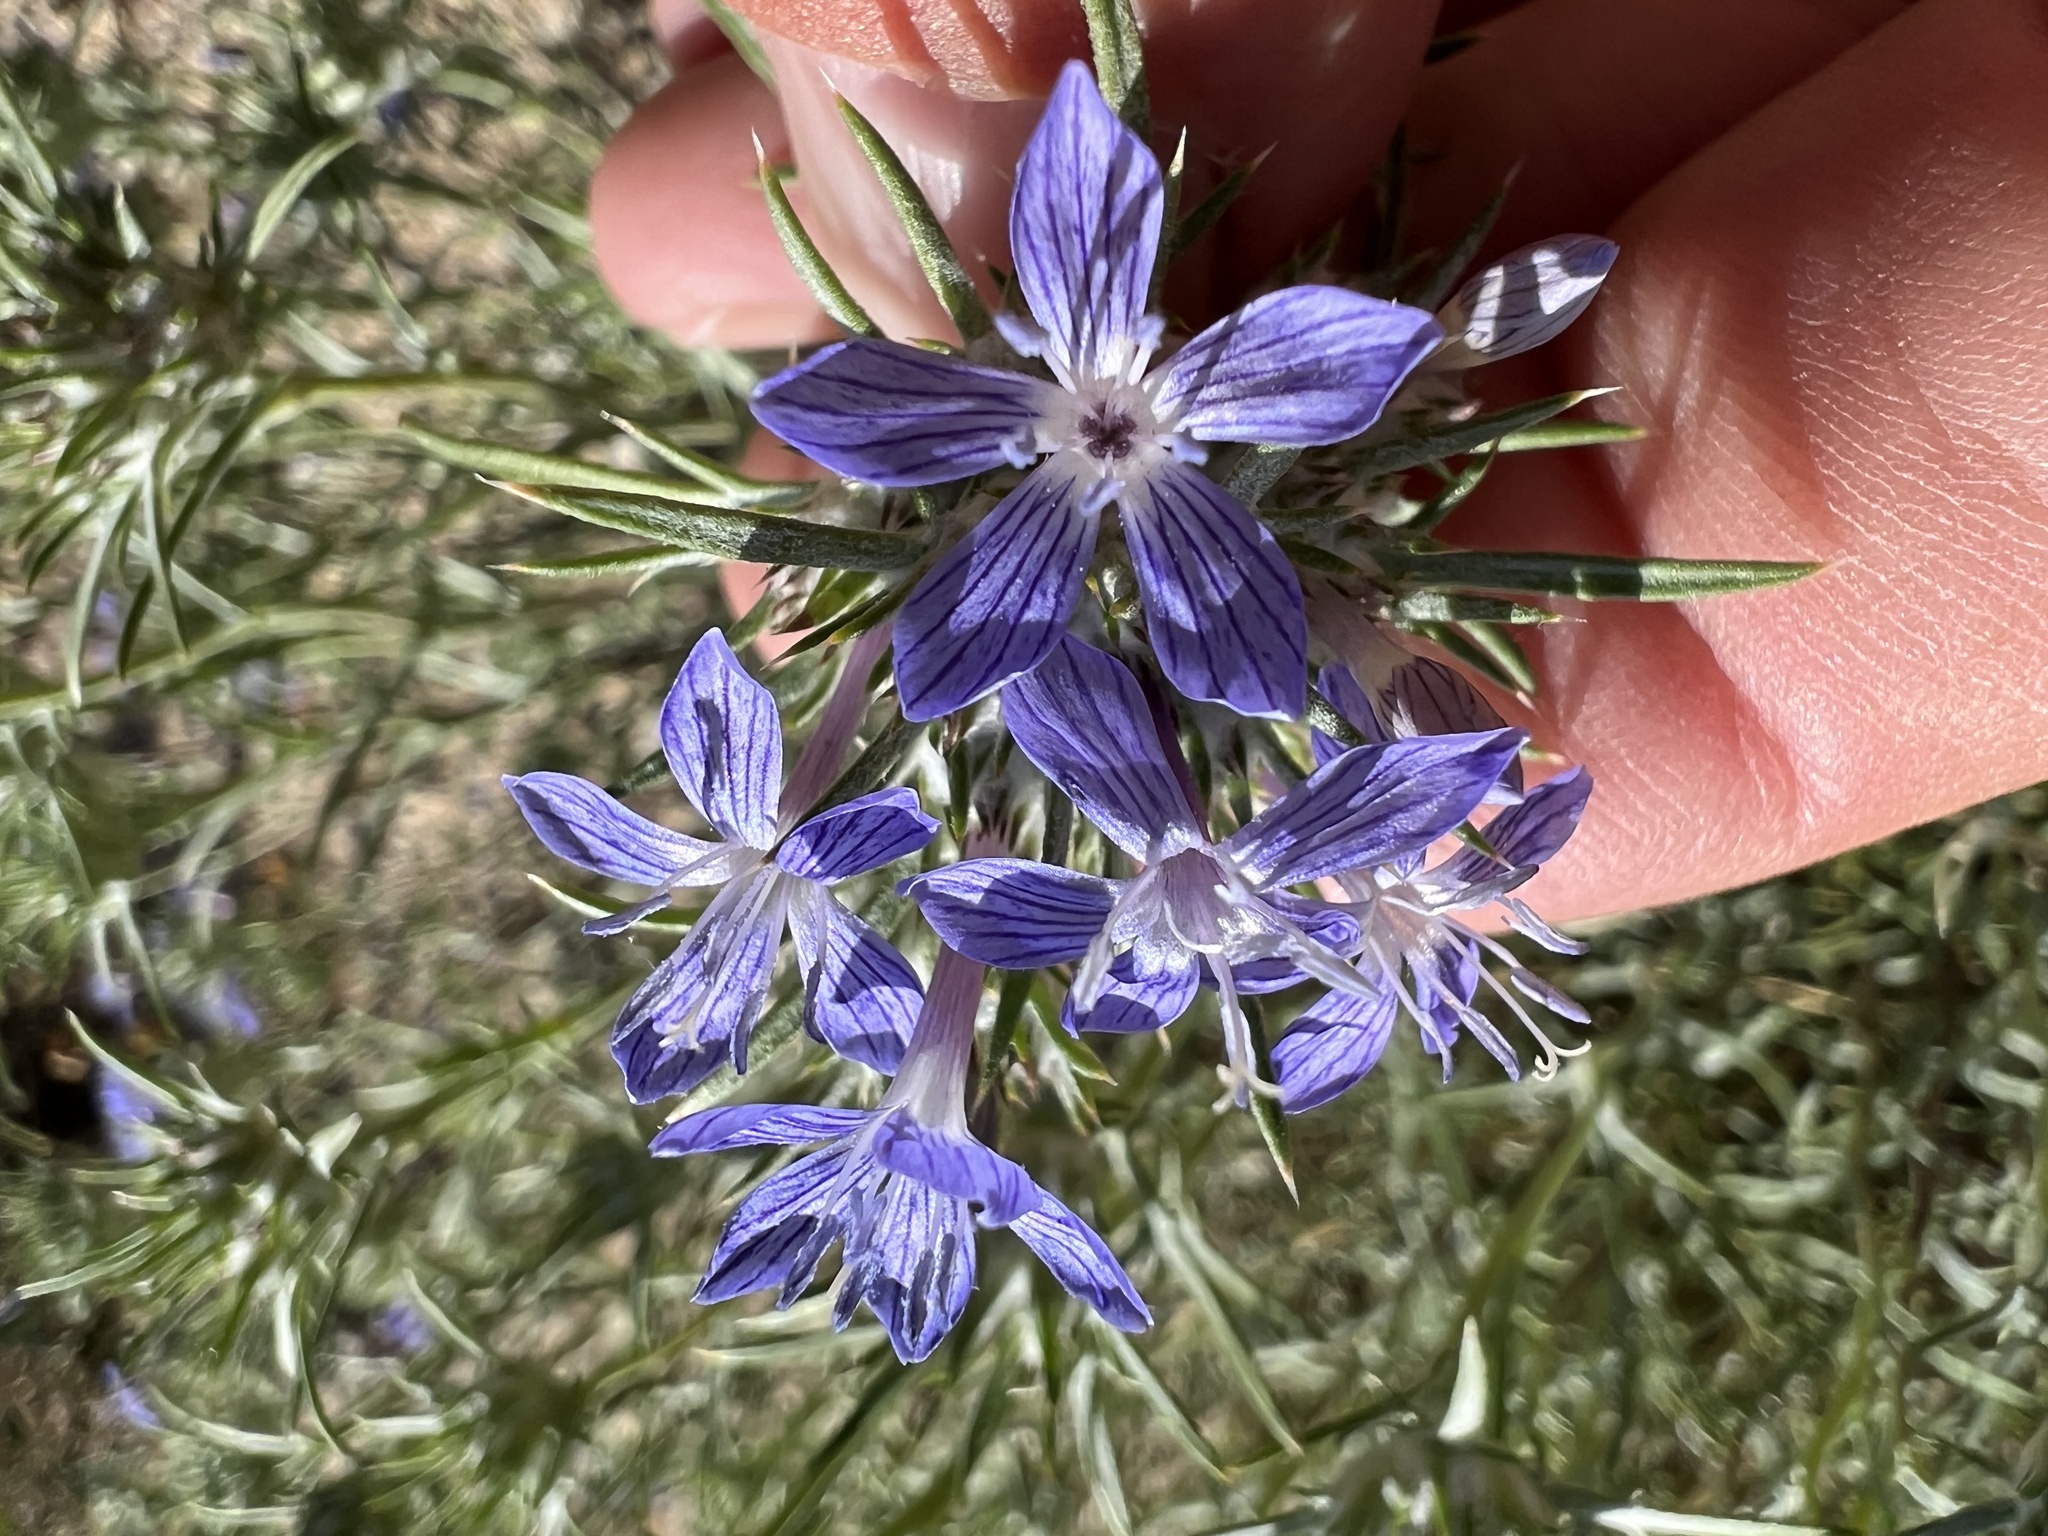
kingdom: Plantae
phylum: Tracheophyta
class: Magnoliopsida
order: Ericales
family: Polemoniaceae
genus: Eriastrum
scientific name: Eriastrum densifolium
